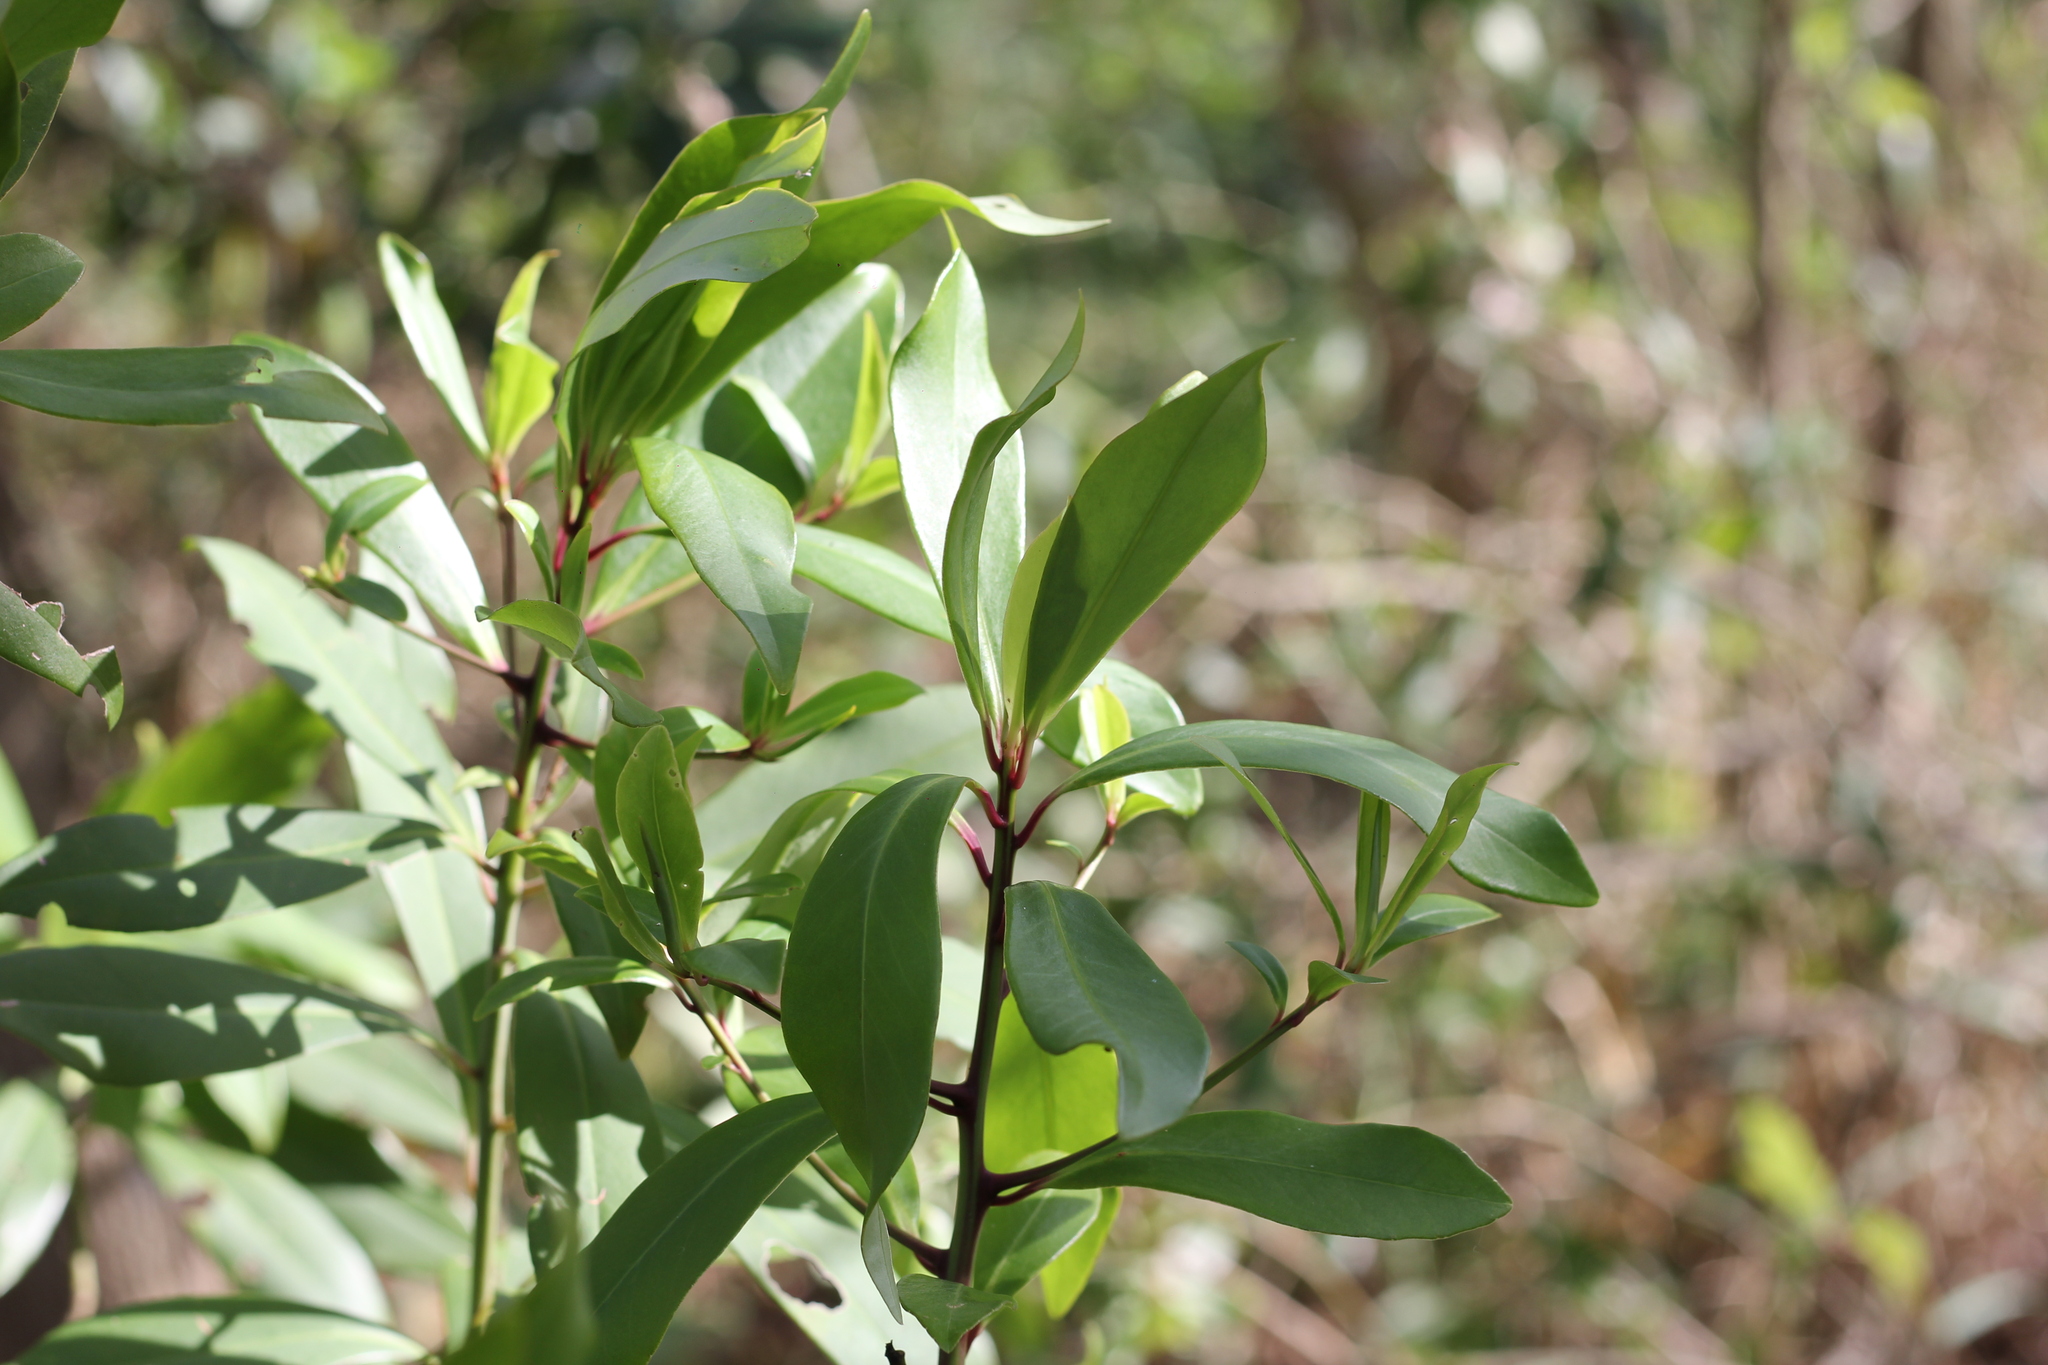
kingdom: Plantae
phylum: Tracheophyta
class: Magnoliopsida
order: Ericales
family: Primulaceae
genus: Myrsine
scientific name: Myrsine lorentziana
